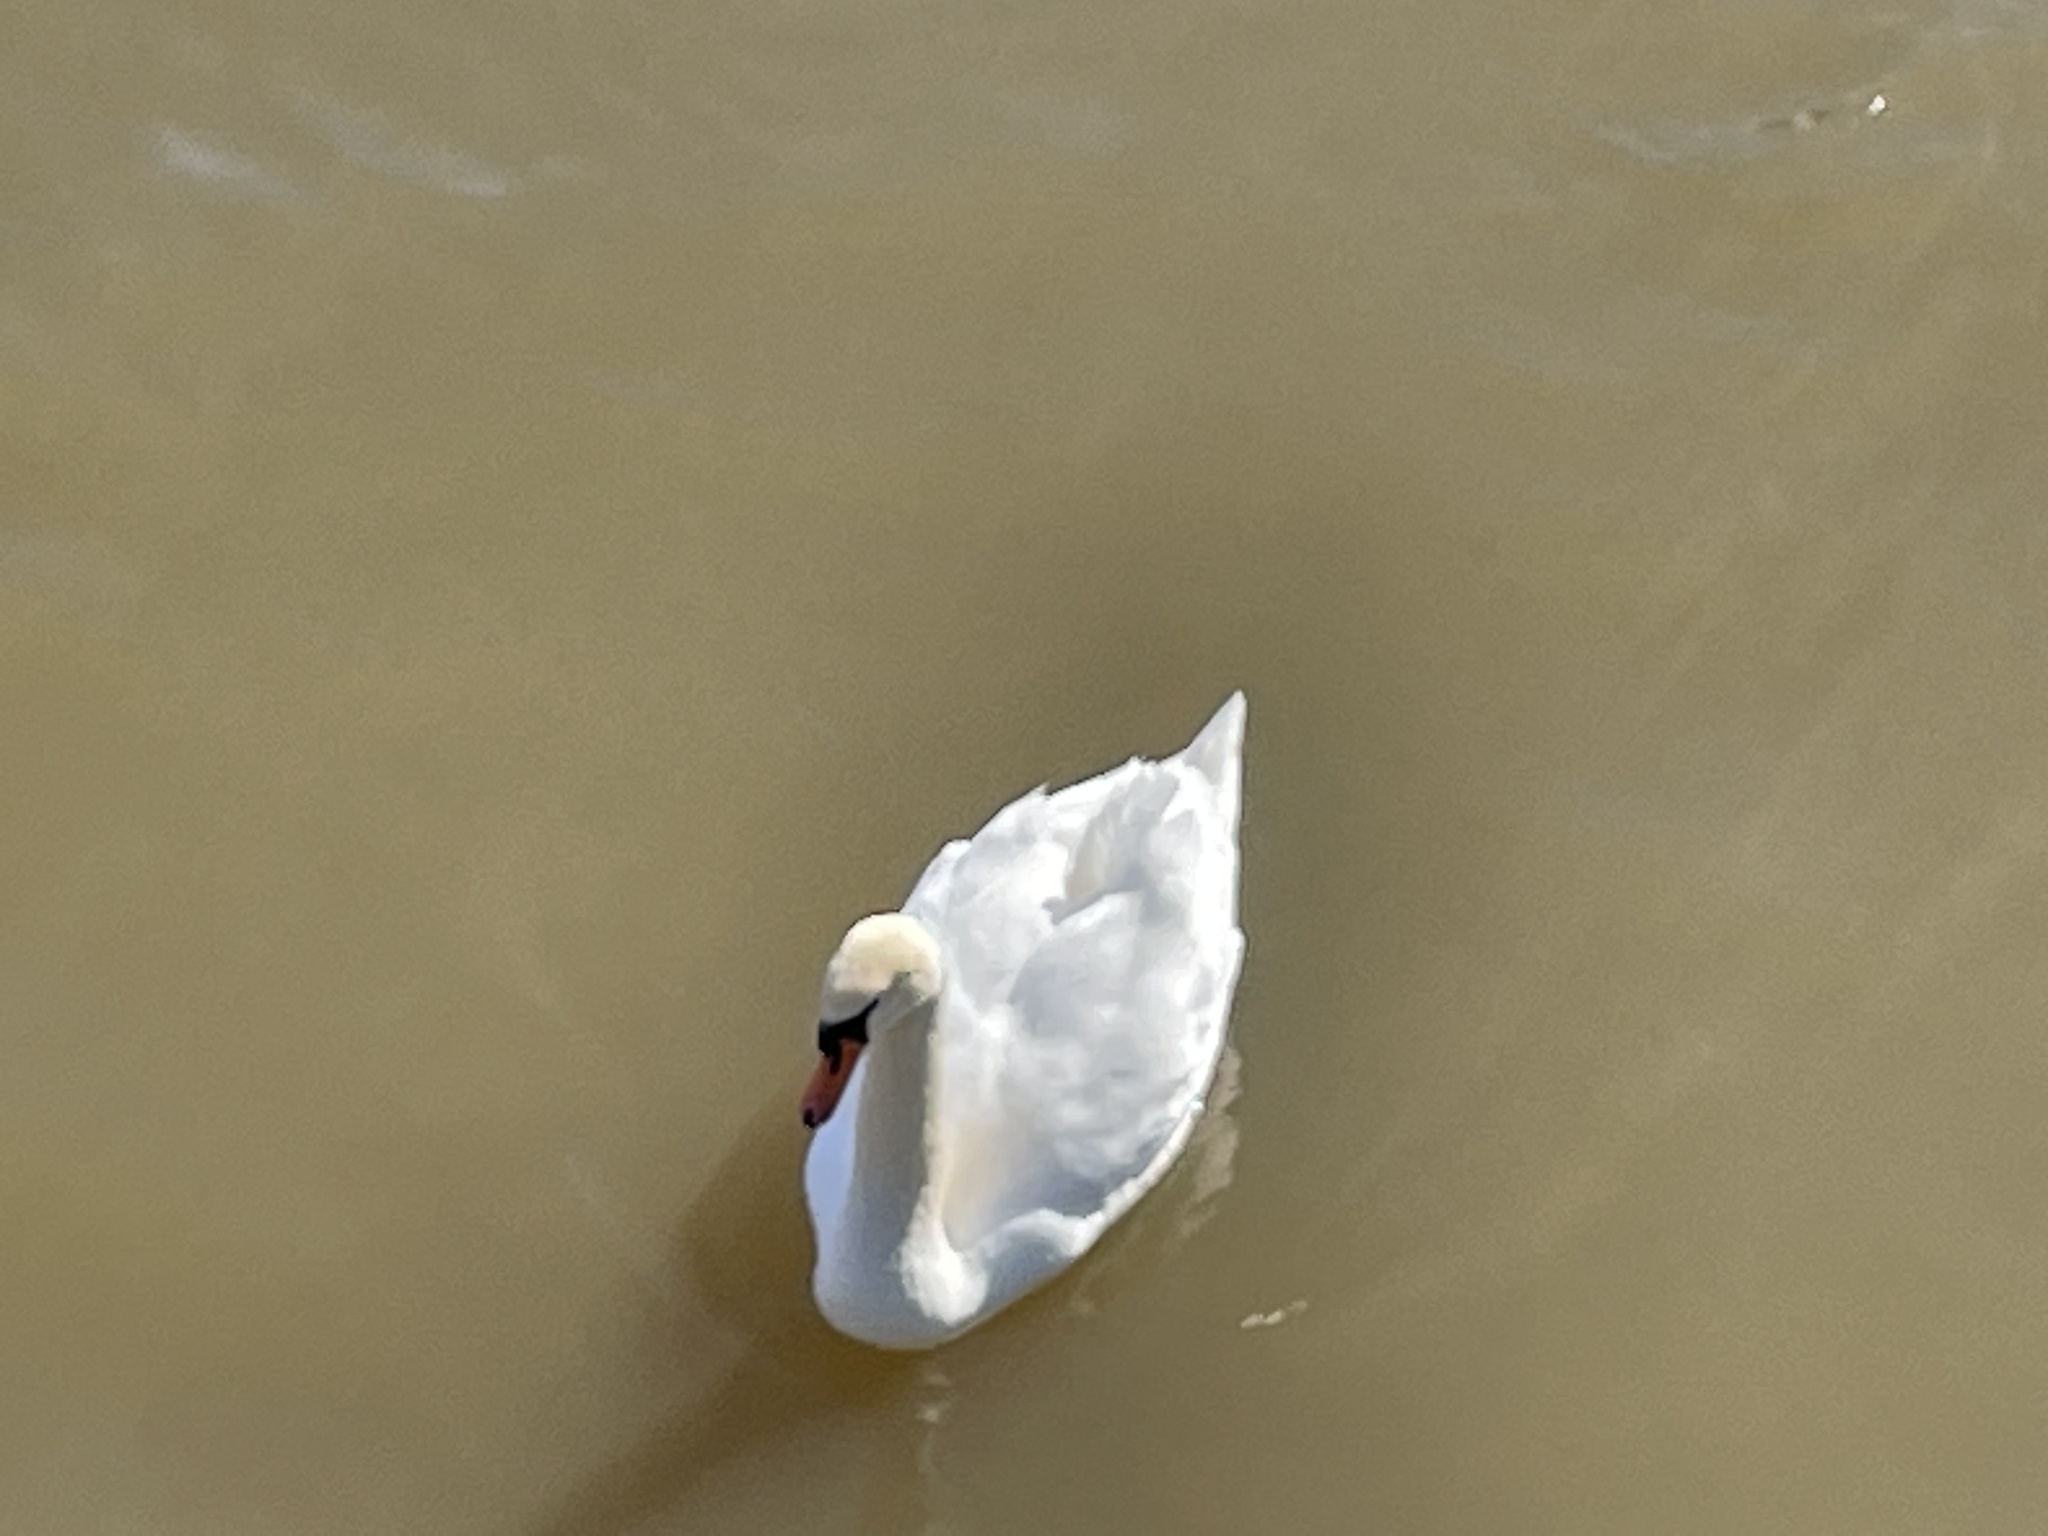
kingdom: Animalia
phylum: Chordata
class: Aves
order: Anseriformes
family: Anatidae
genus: Cygnus
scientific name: Cygnus olor
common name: Mute swan
